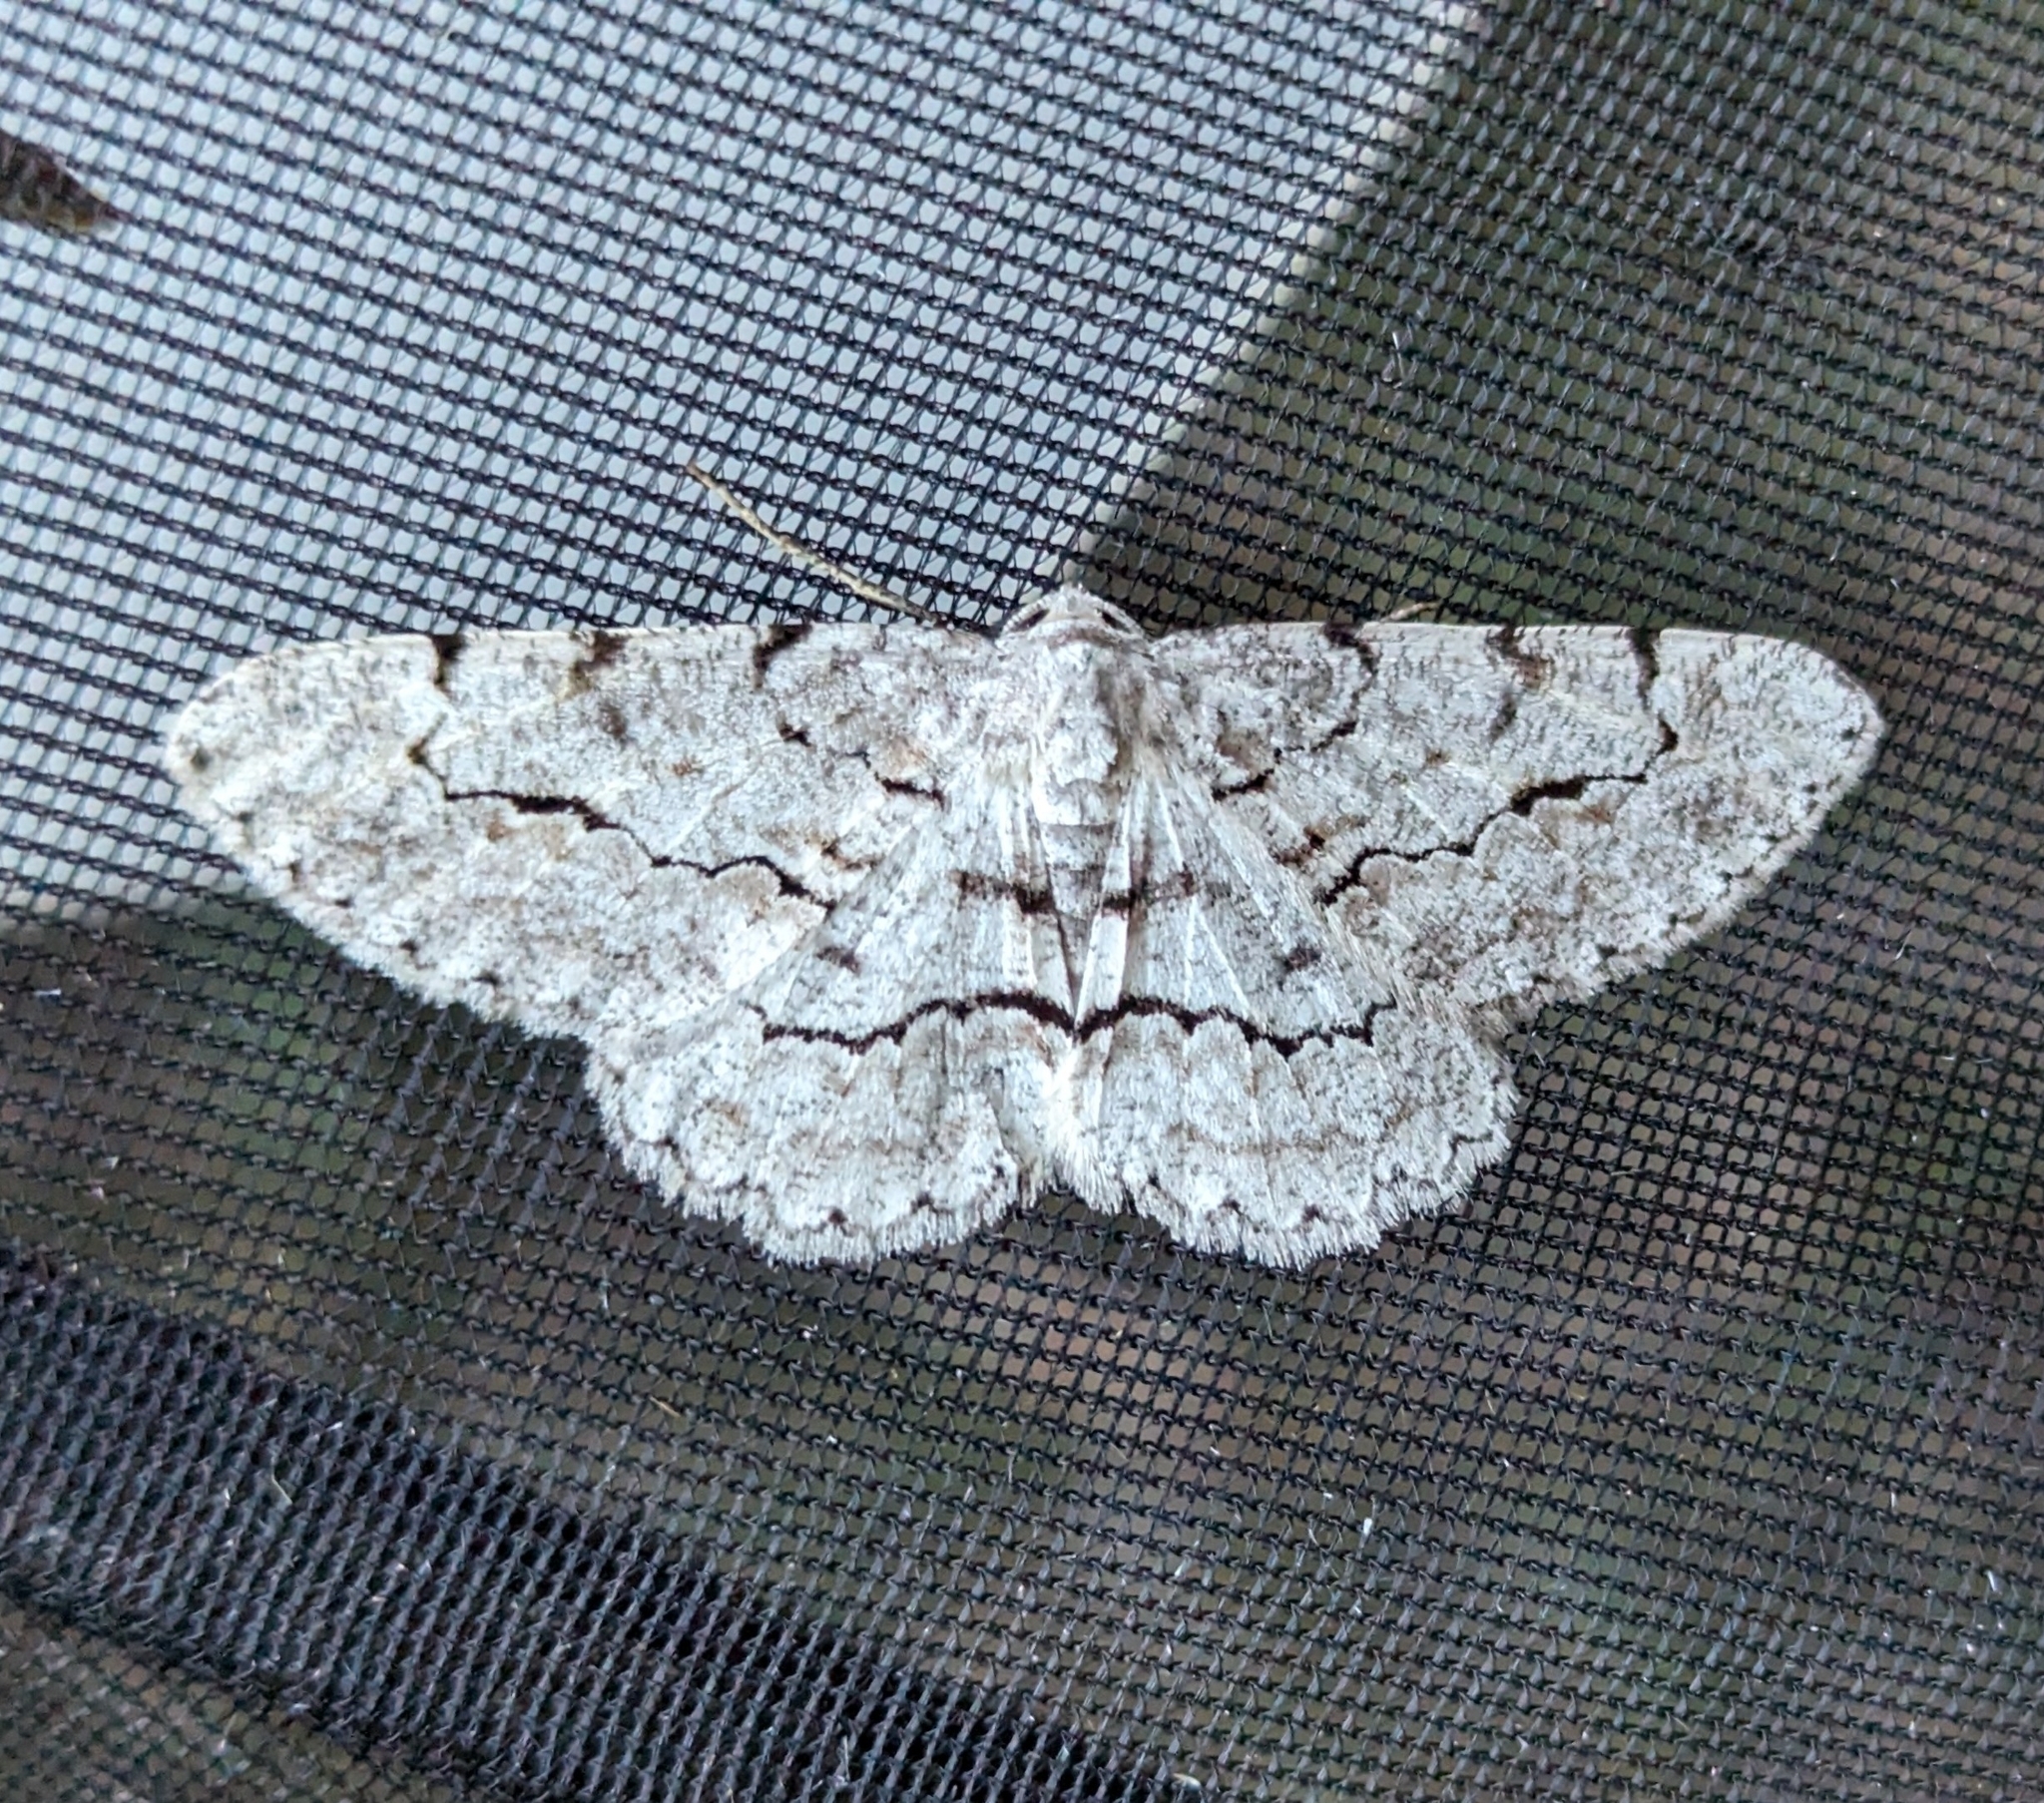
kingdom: Animalia
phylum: Arthropoda
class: Insecta
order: Lepidoptera
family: Geometridae
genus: Stenoporpia
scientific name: Stenoporpia pulmonaria
